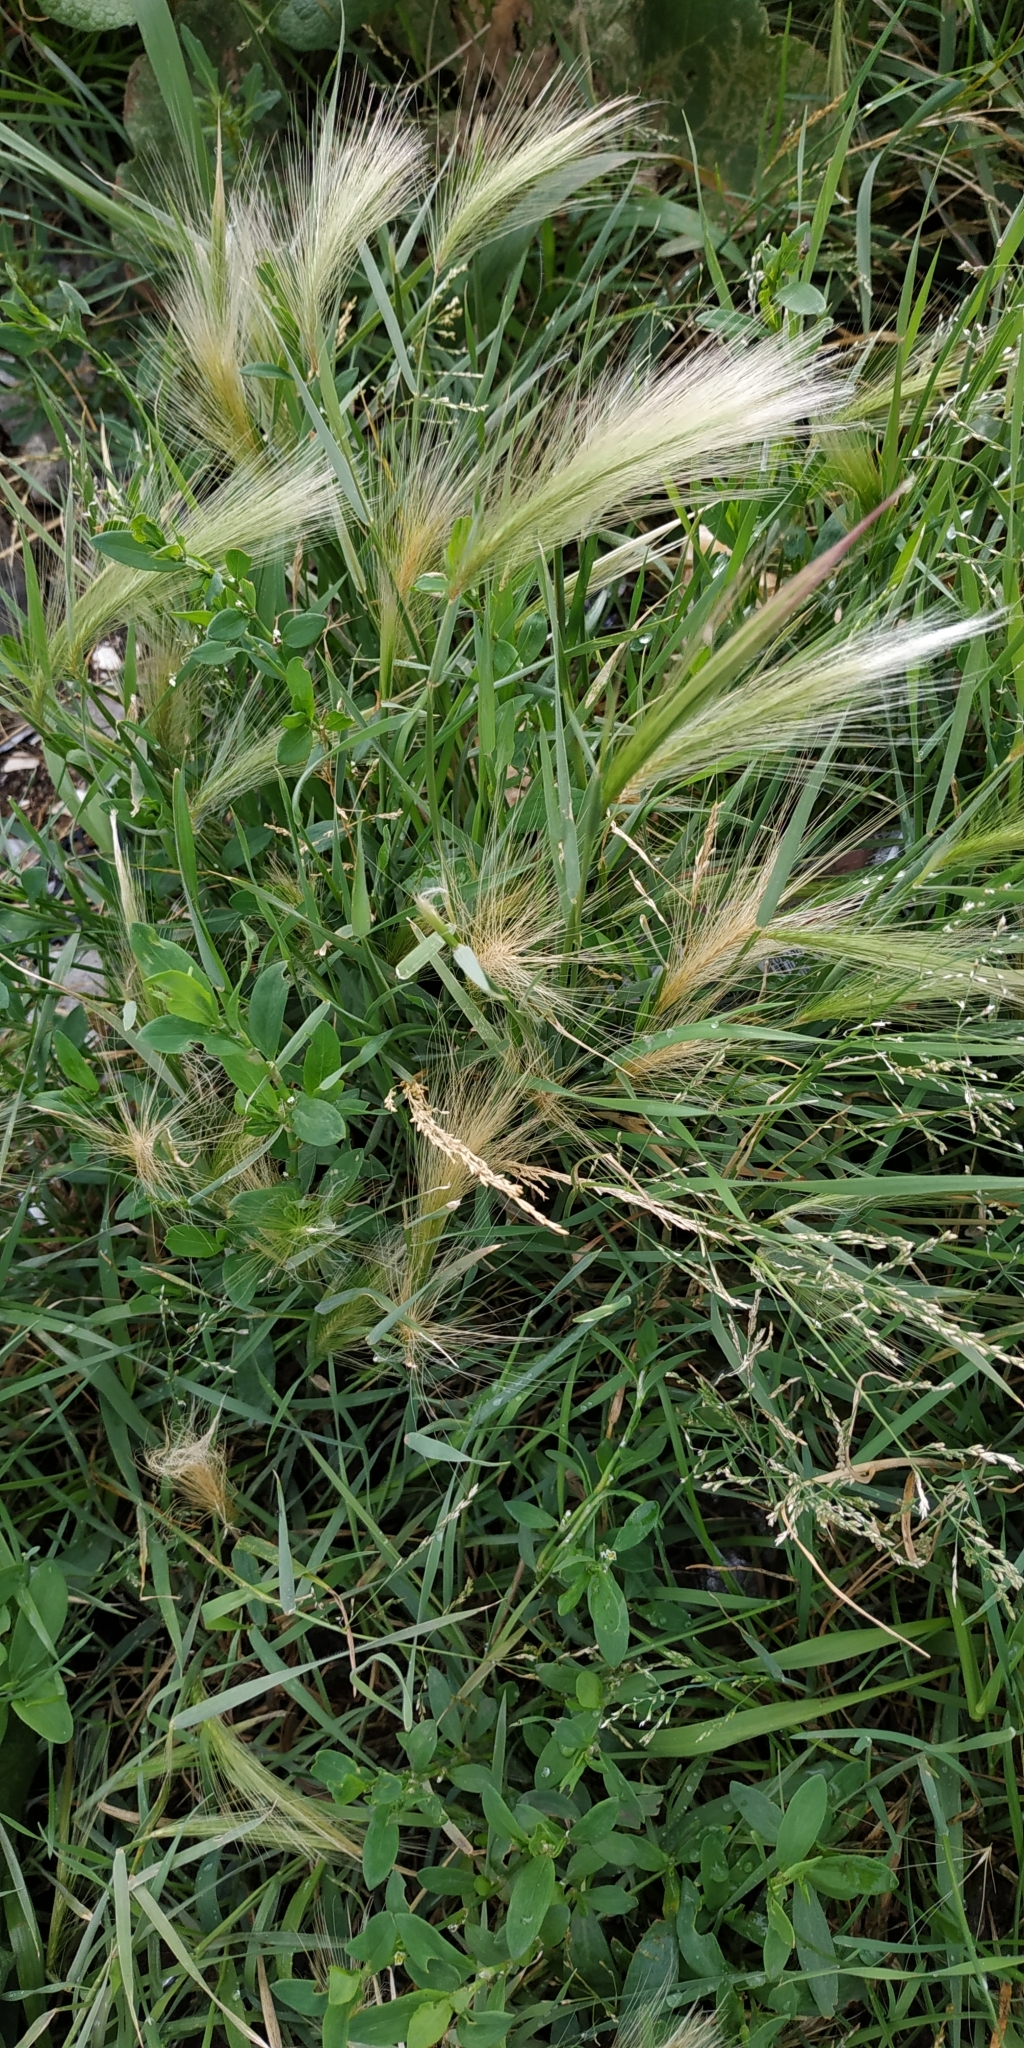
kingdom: Plantae
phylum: Tracheophyta
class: Liliopsida
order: Poales
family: Poaceae
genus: Hordeum
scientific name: Hordeum jubatum
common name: Foxtail barley
